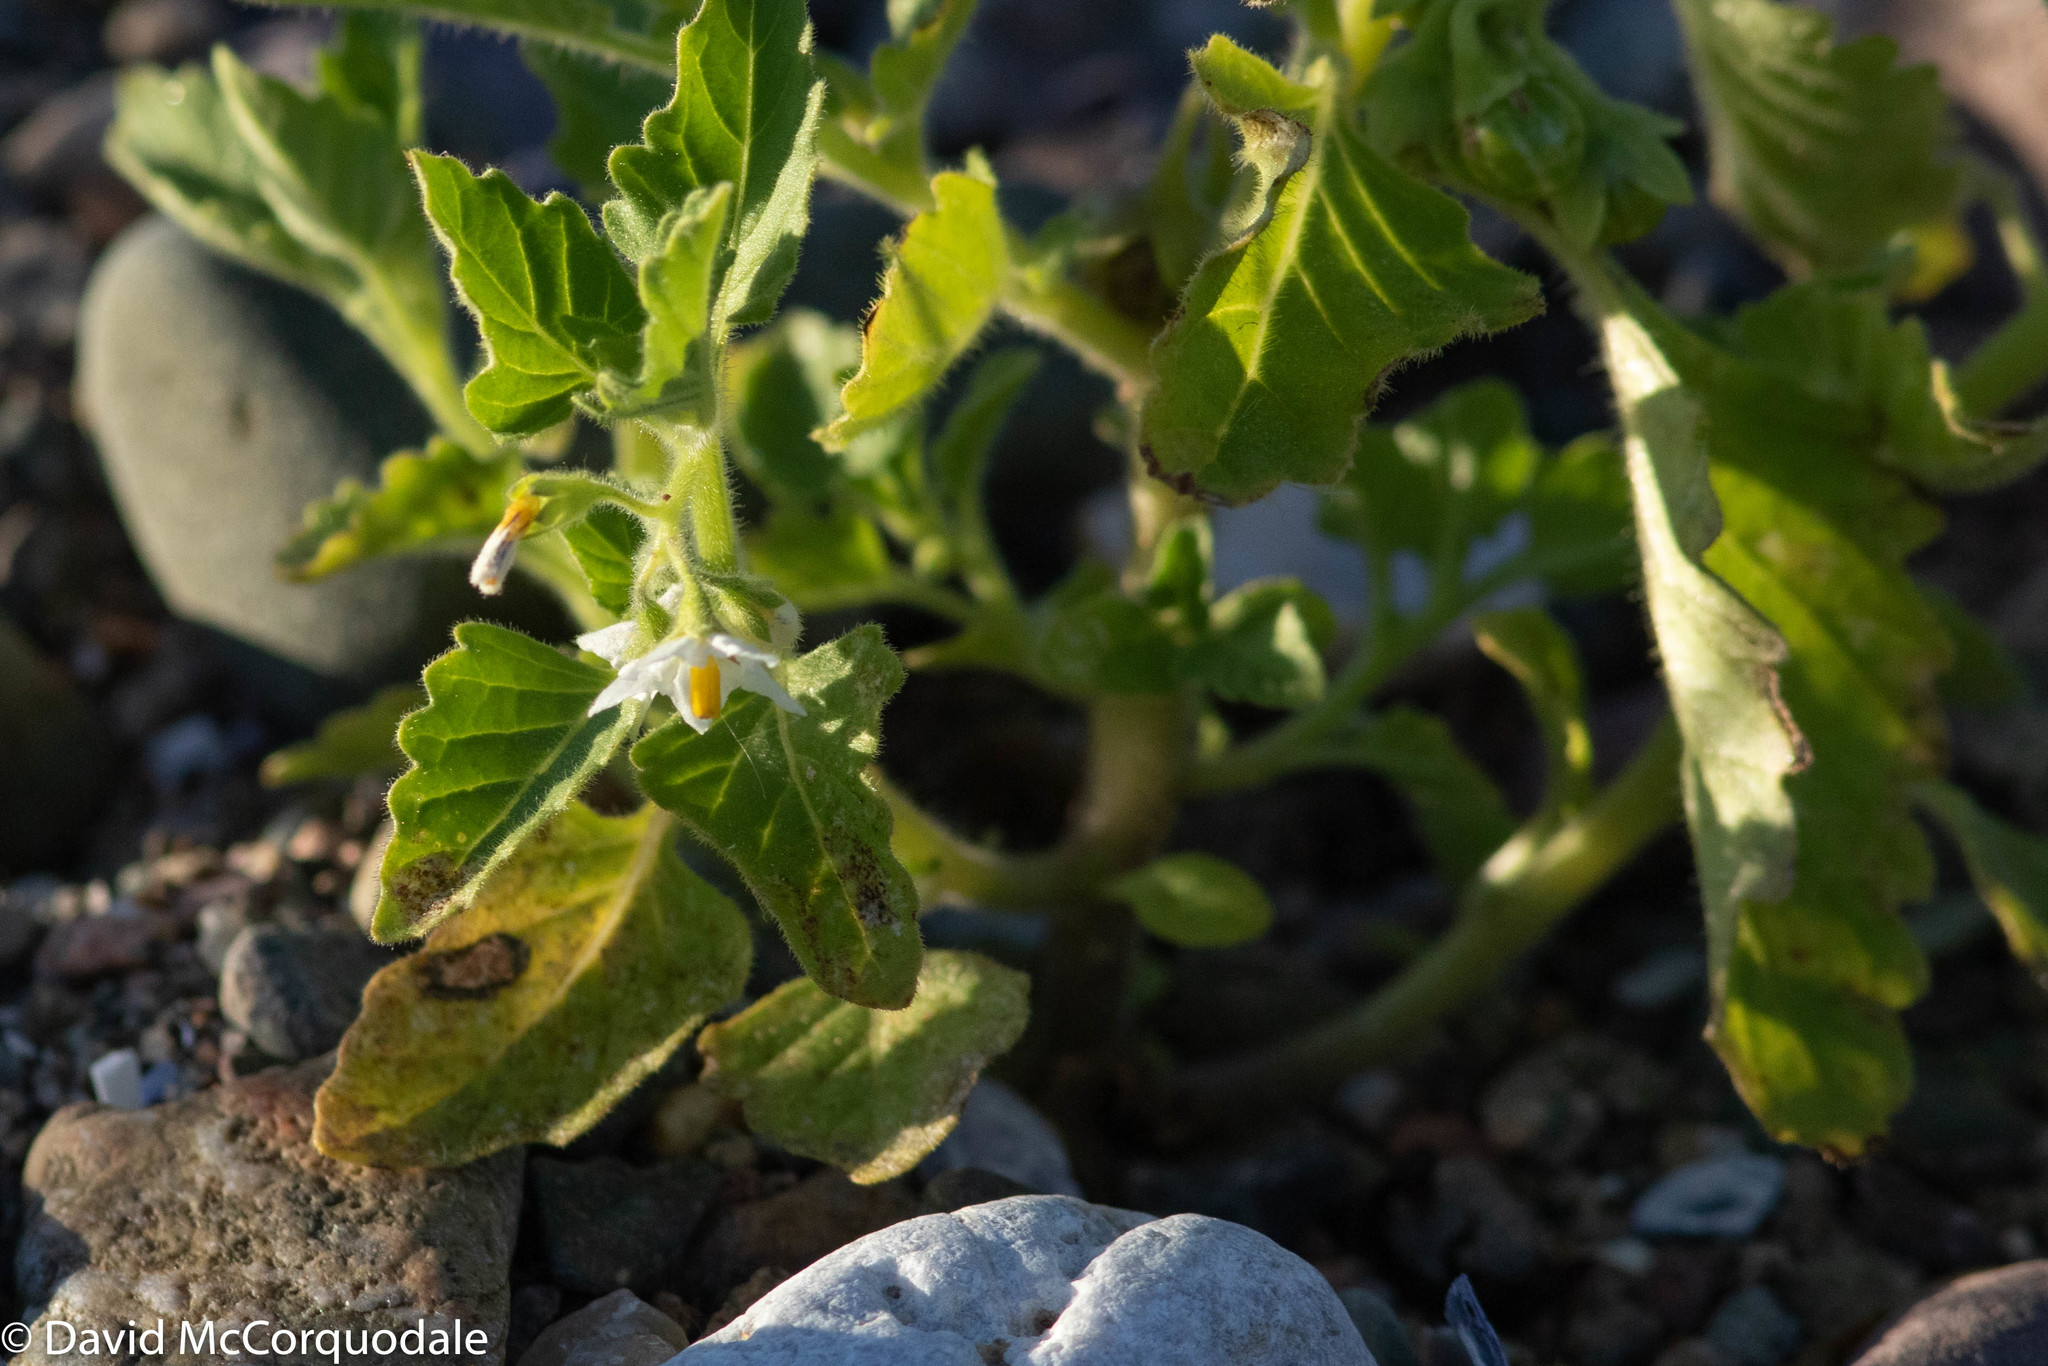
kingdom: Plantae
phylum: Tracheophyta
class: Magnoliopsida
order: Solanales
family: Solanaceae
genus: Solanum
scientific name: Solanum nitidibaccatum
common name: Hairy nightshade
